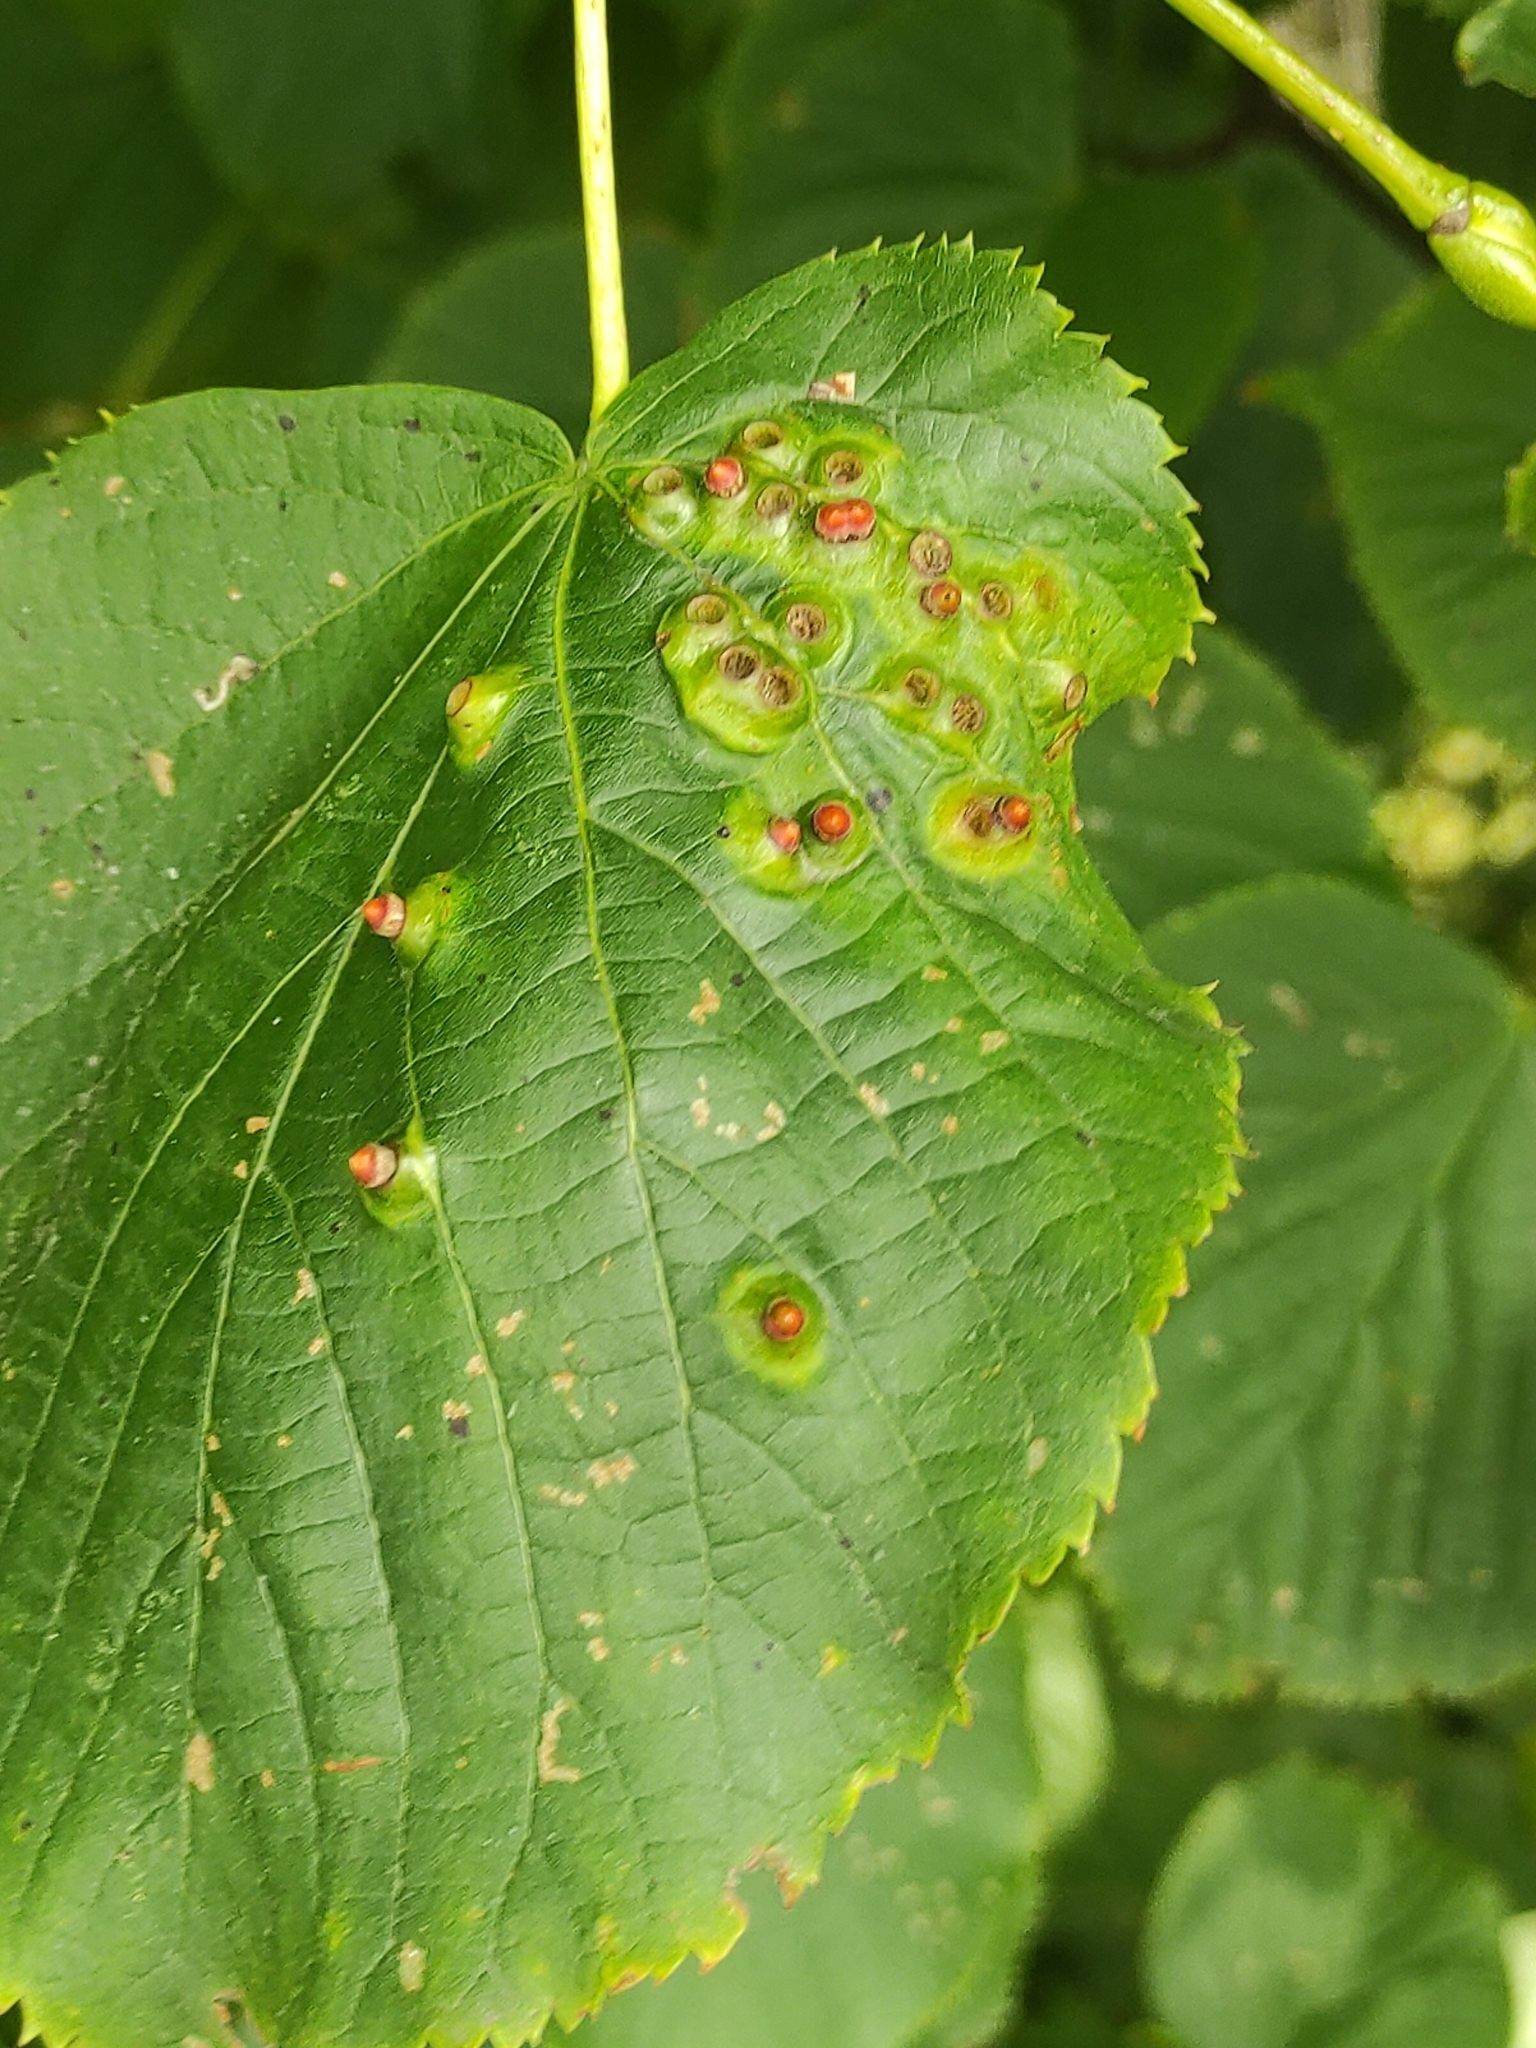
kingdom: Animalia
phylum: Arthropoda
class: Arachnida
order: Trombidiformes
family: Eriophyidae
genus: Eriophyes
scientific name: Eriophyes tiliae
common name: Red nail gall mite
